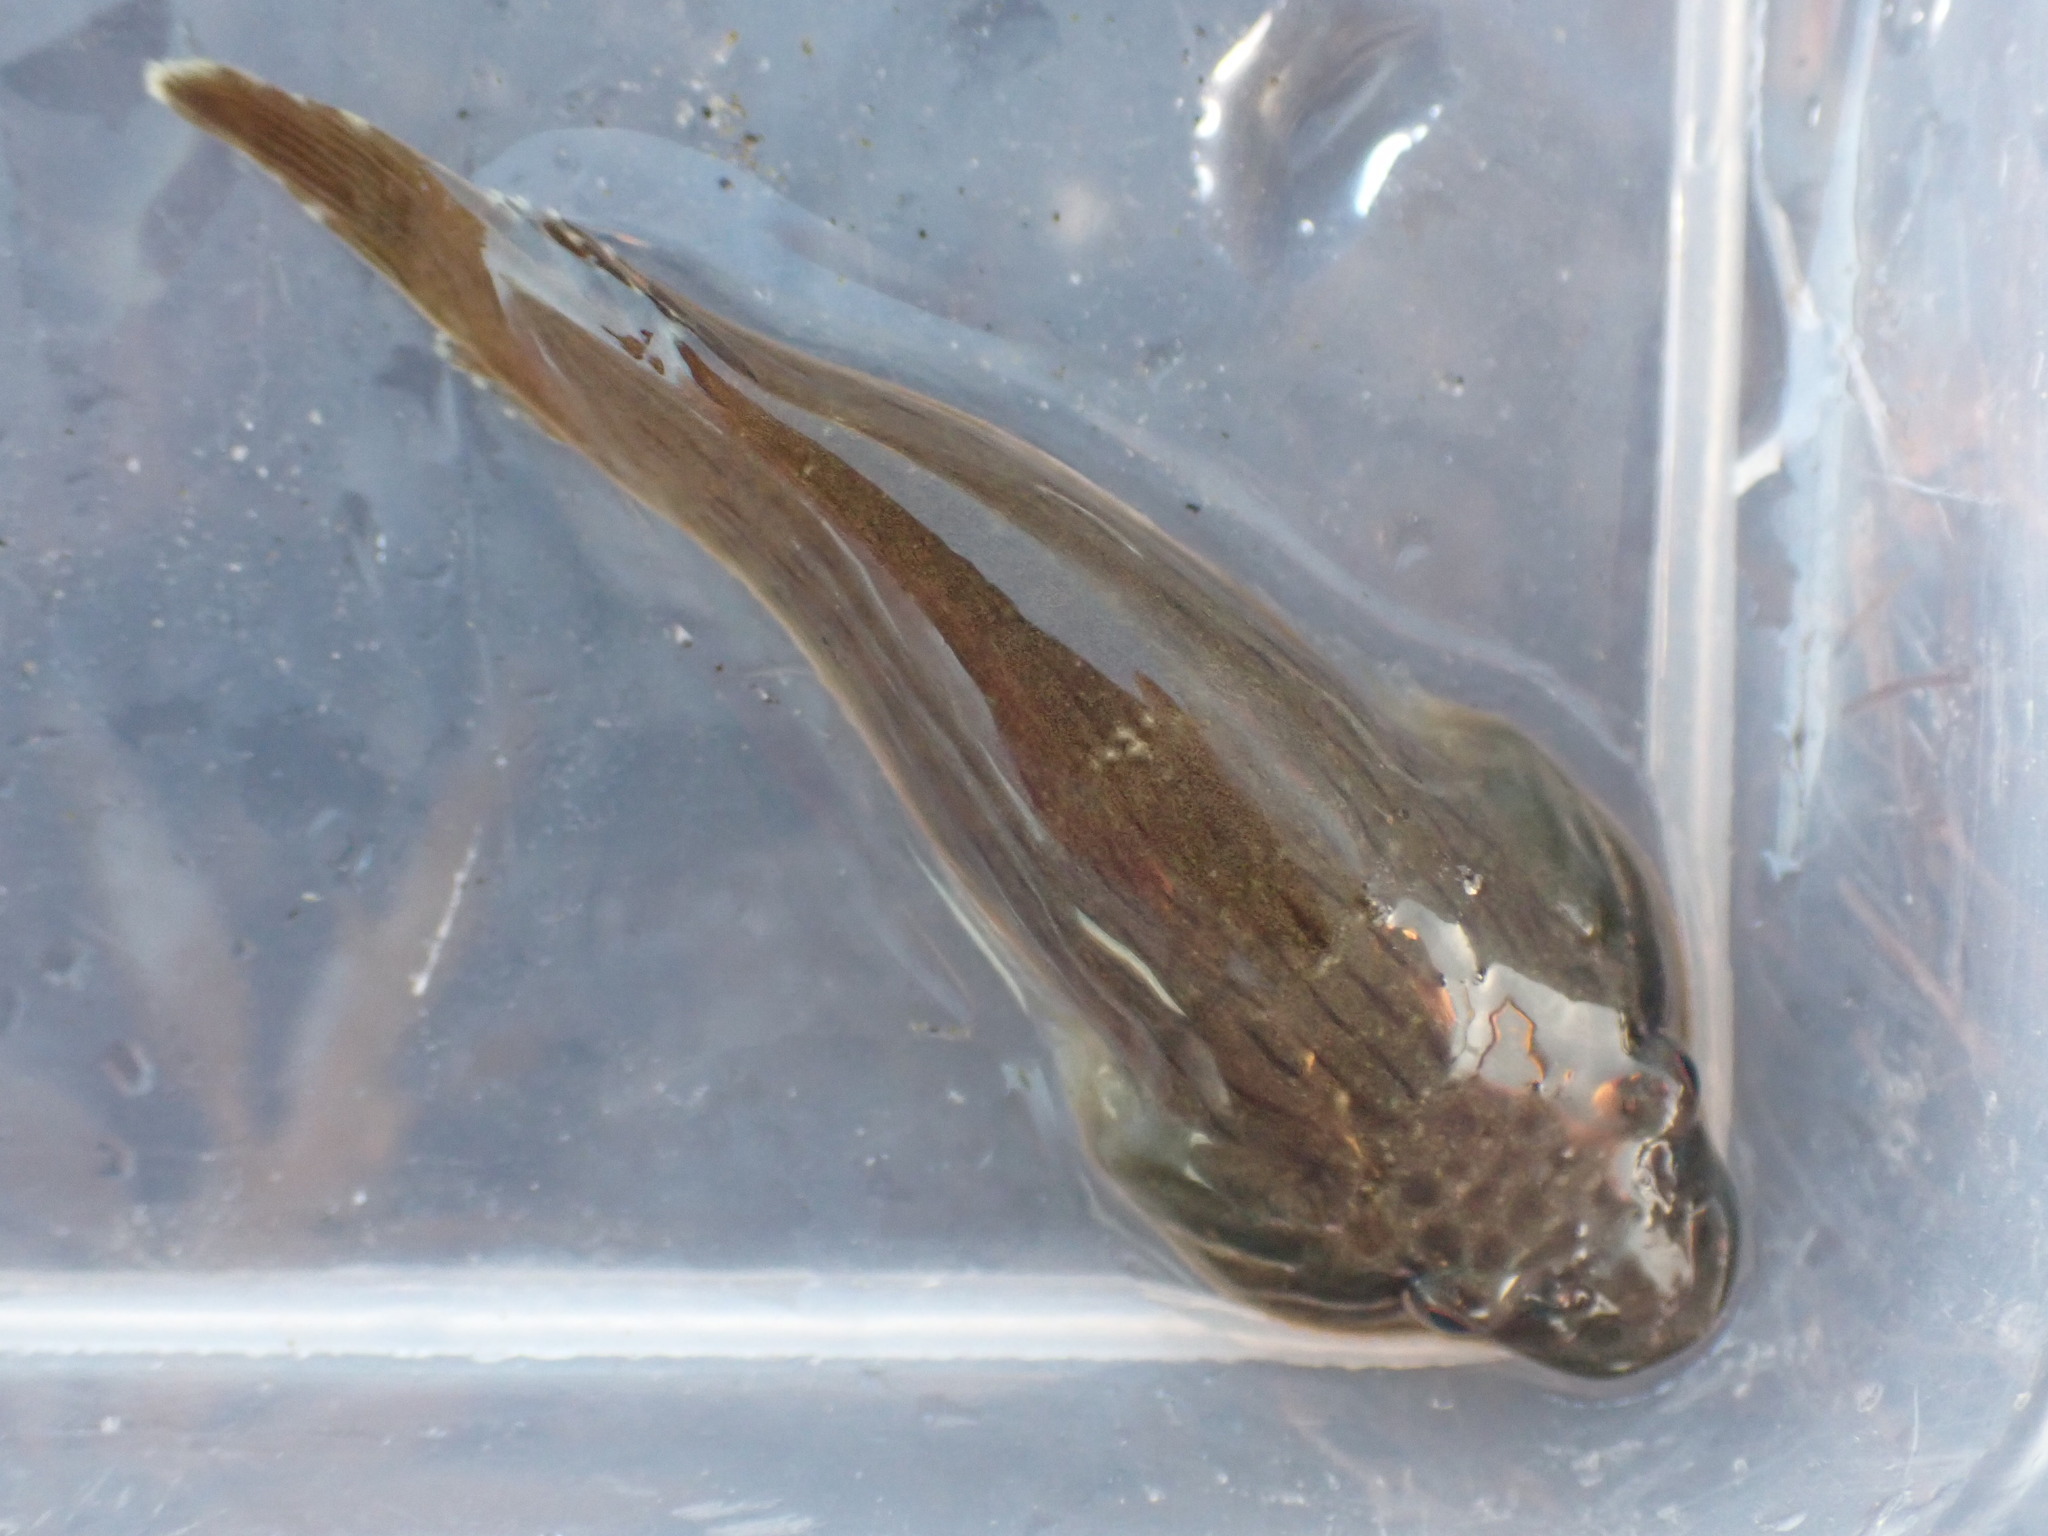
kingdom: Animalia
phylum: Chordata
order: Gobiesociformes
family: Gobiesocidae
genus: Trachelochismus
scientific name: Trachelochismus pinnulatus
